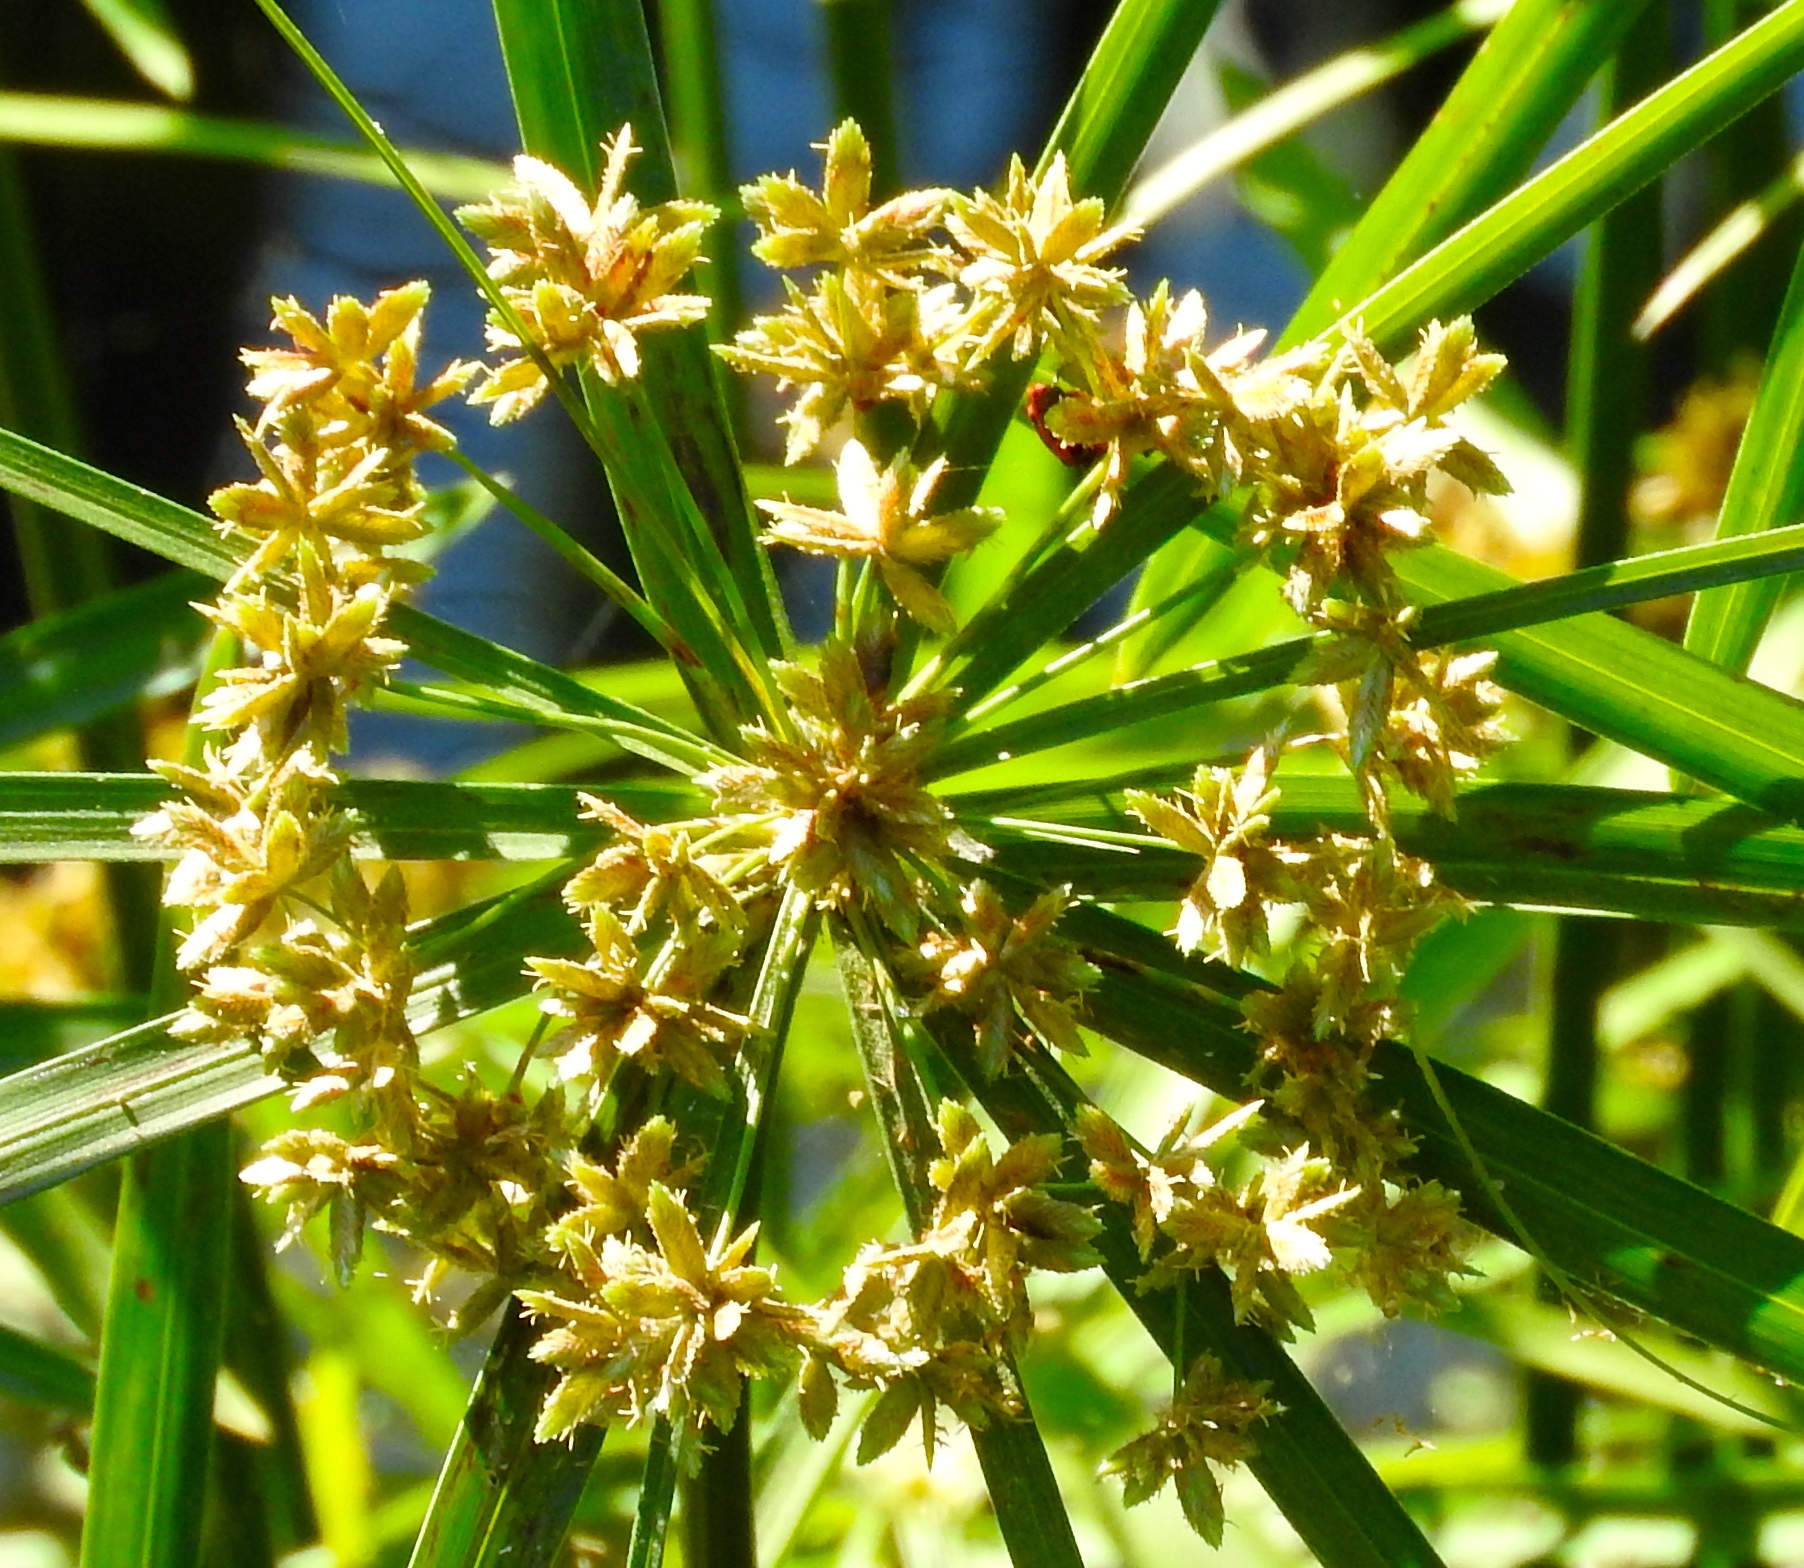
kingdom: Plantae
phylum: Tracheophyta
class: Liliopsida
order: Poales
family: Cyperaceae
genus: Cyperus
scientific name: Cyperus alternifolius
